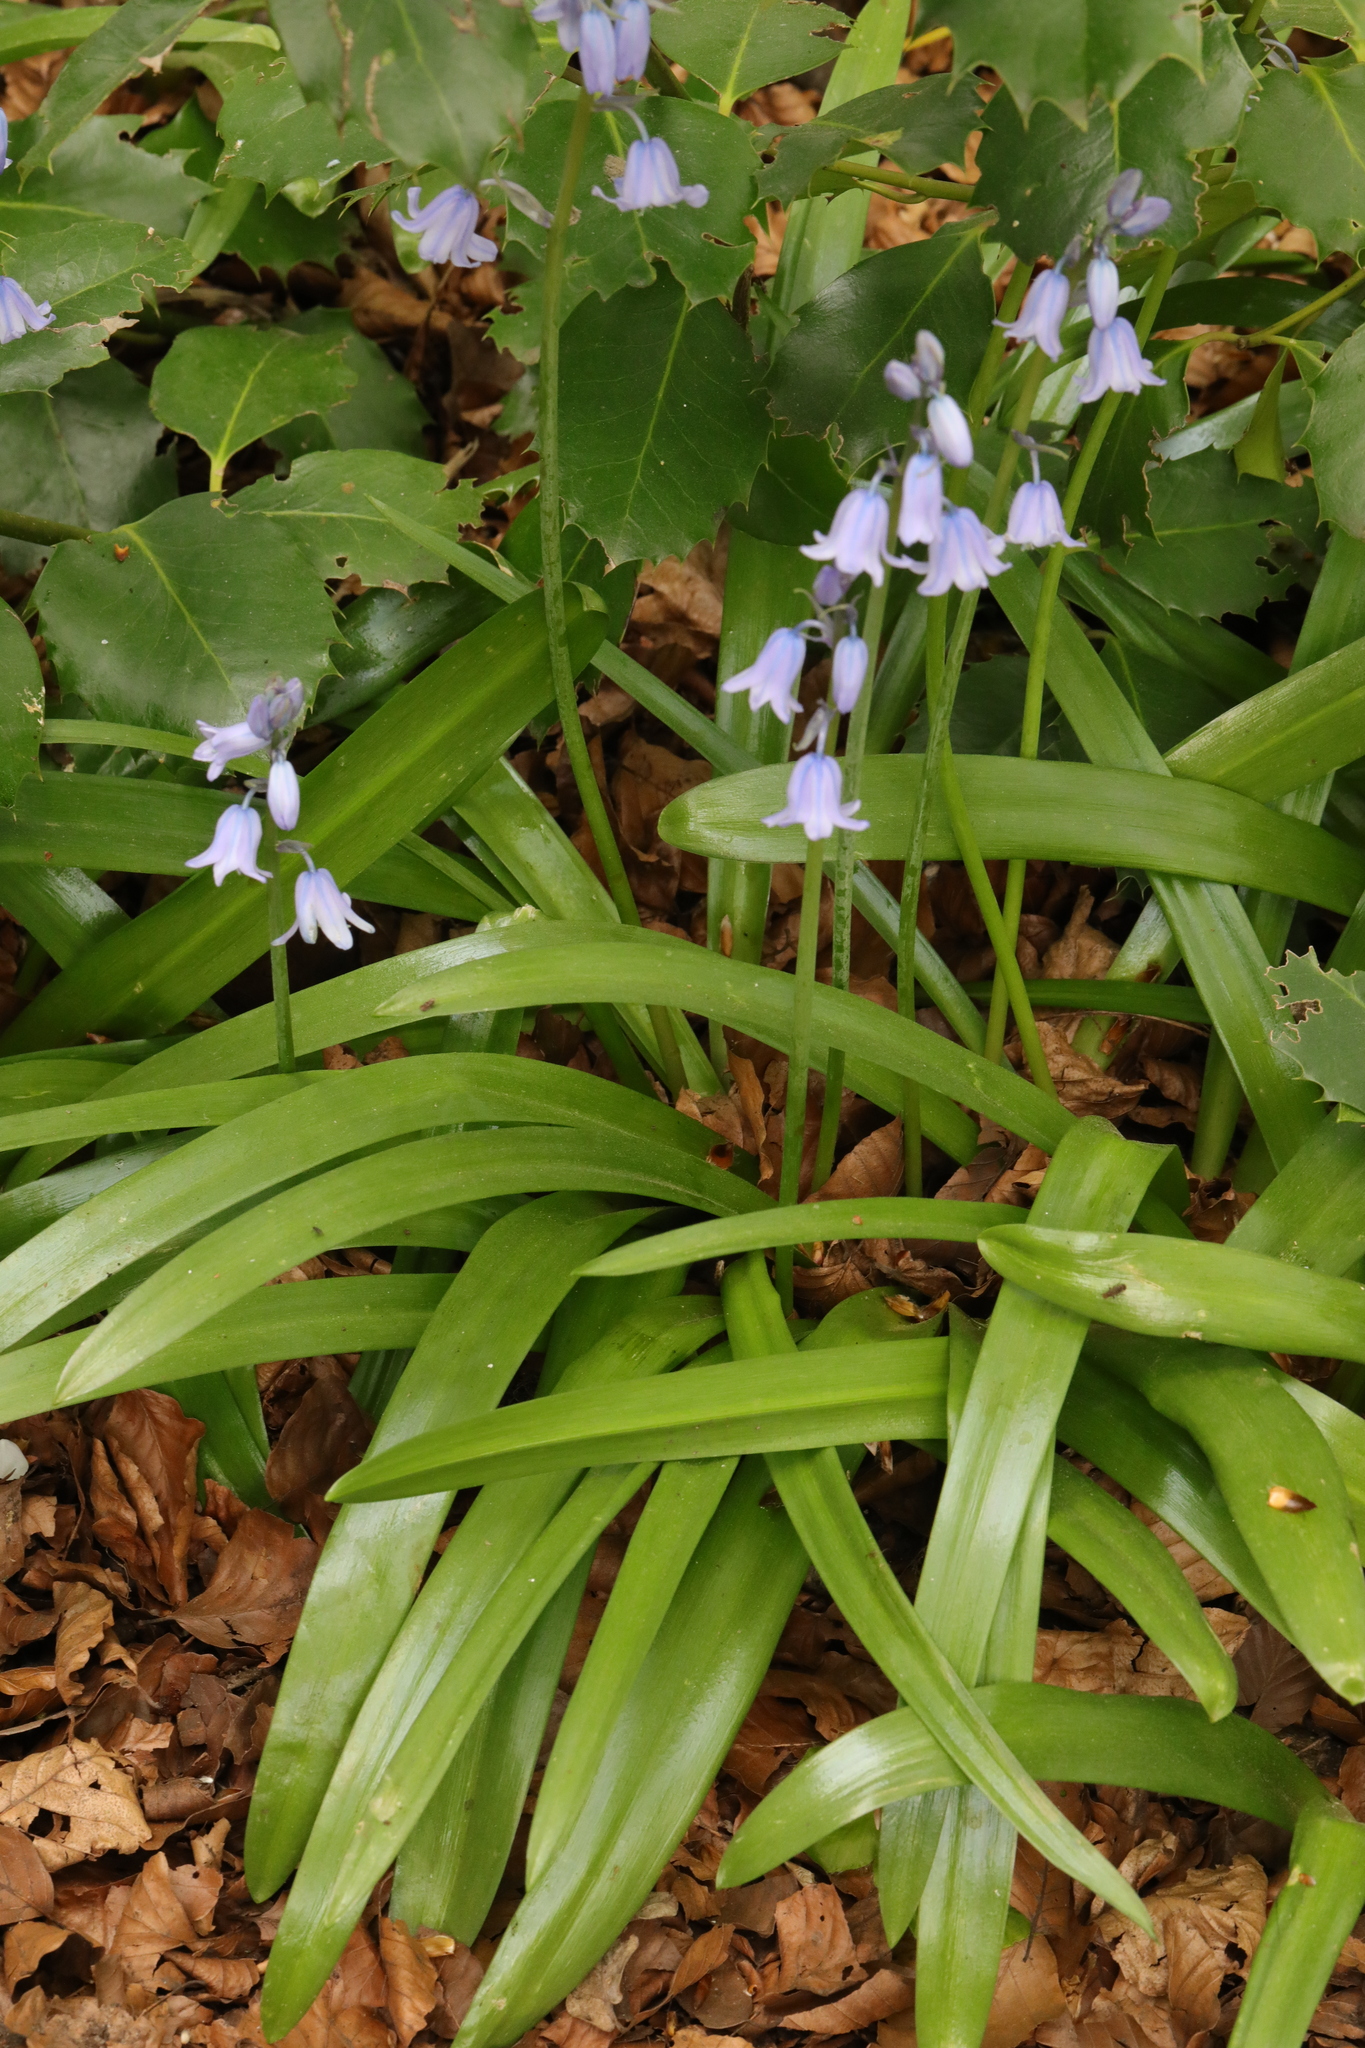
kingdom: Plantae
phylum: Tracheophyta
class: Liliopsida
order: Asparagales
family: Asparagaceae
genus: Hyacinthoides
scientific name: Hyacinthoides hispanica
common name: Spanish bluebell
